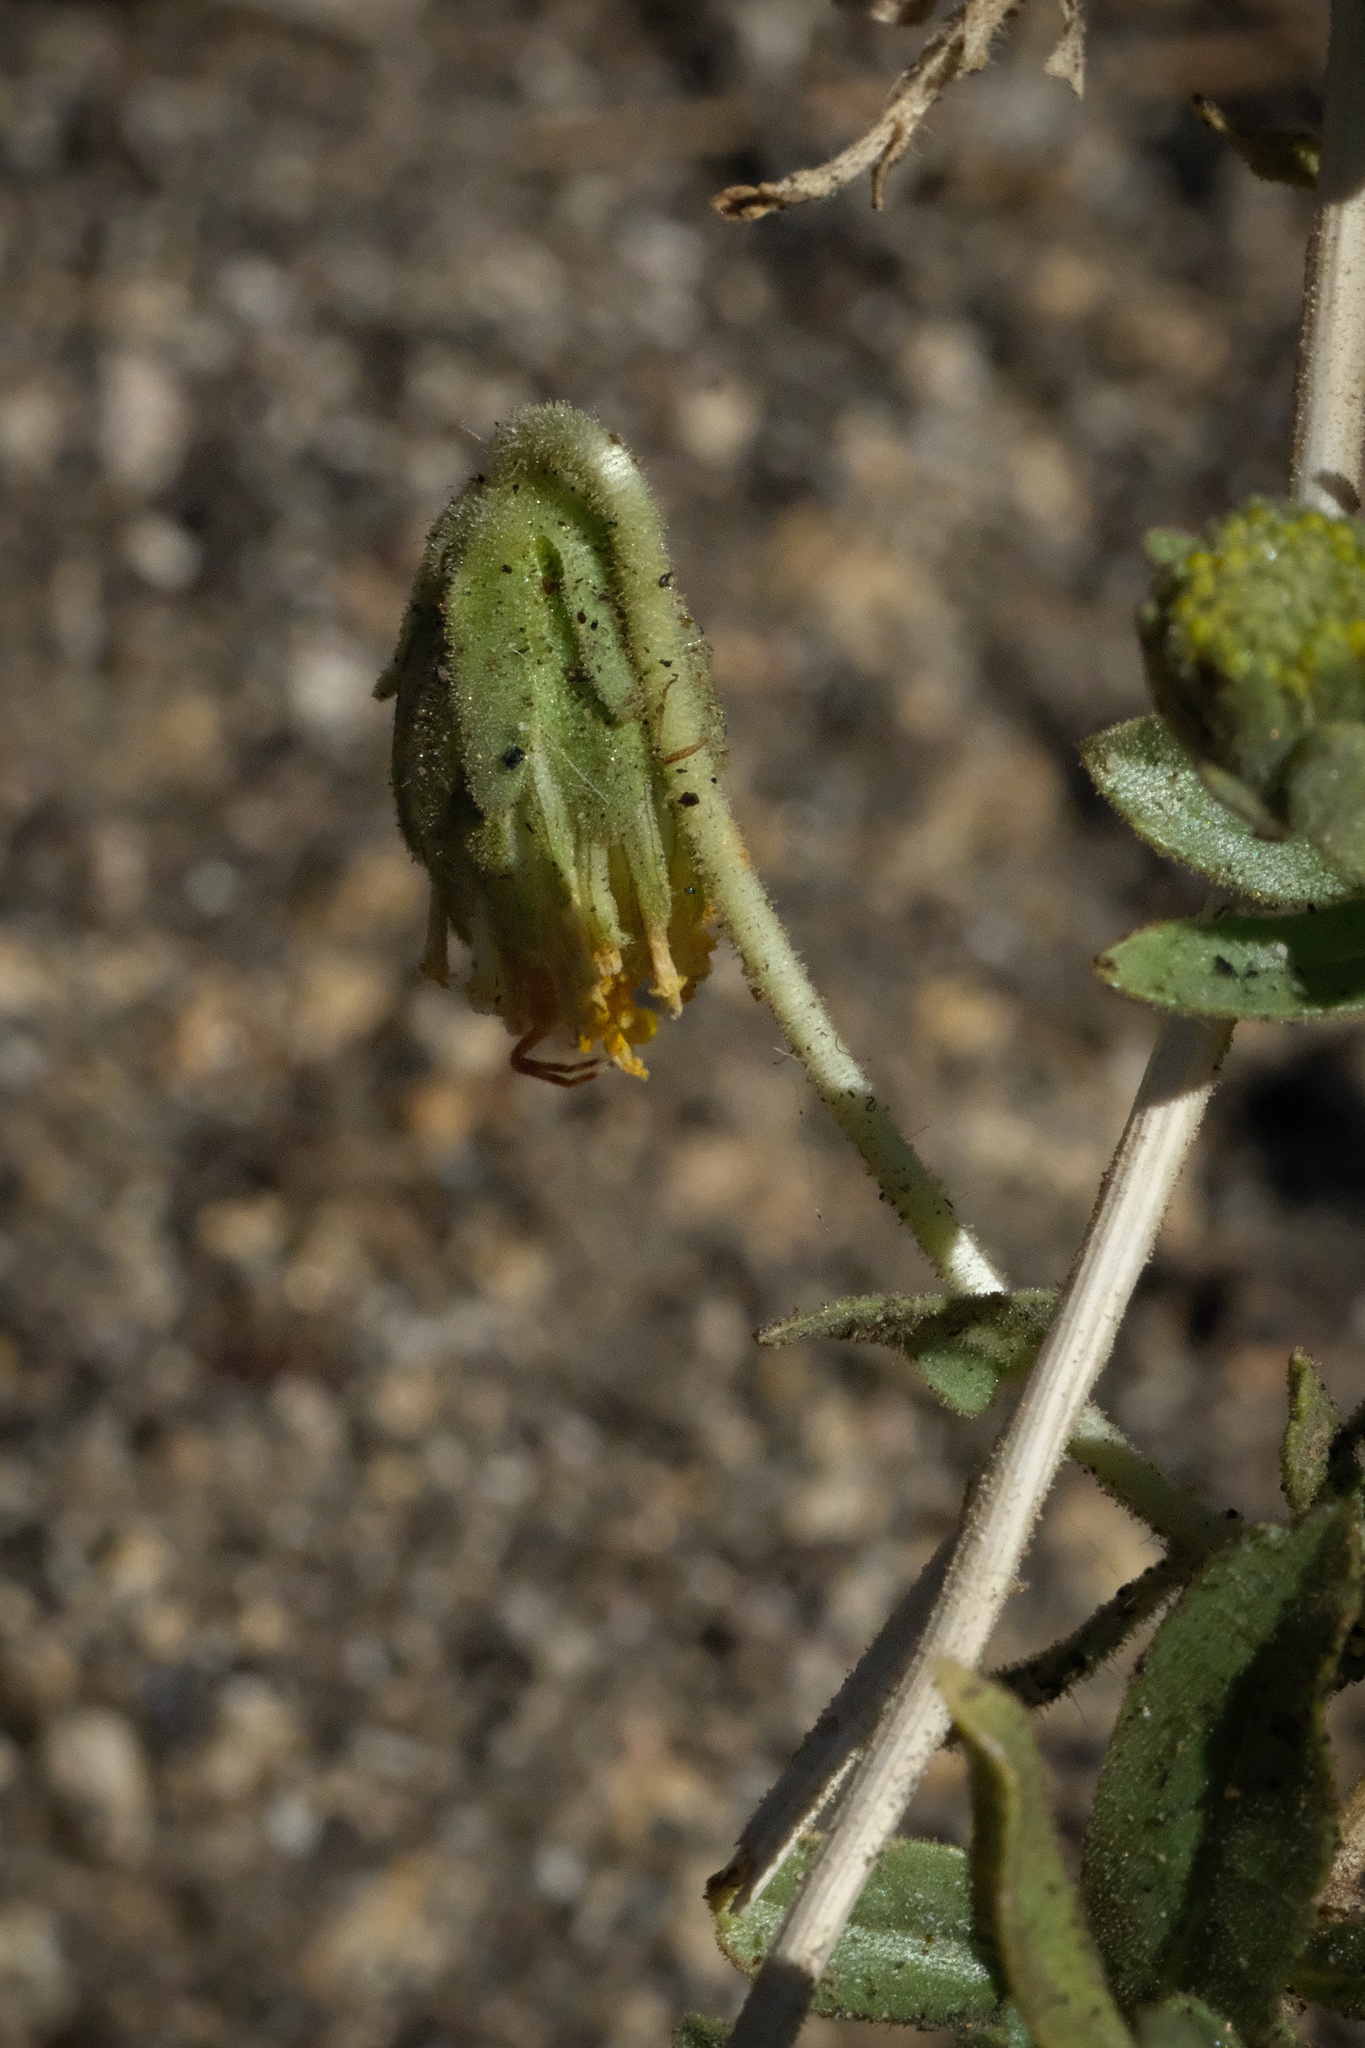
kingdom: Plantae
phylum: Tracheophyta
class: Magnoliopsida
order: Asterales
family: Asteraceae
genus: Geraea
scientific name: Geraea viscida
